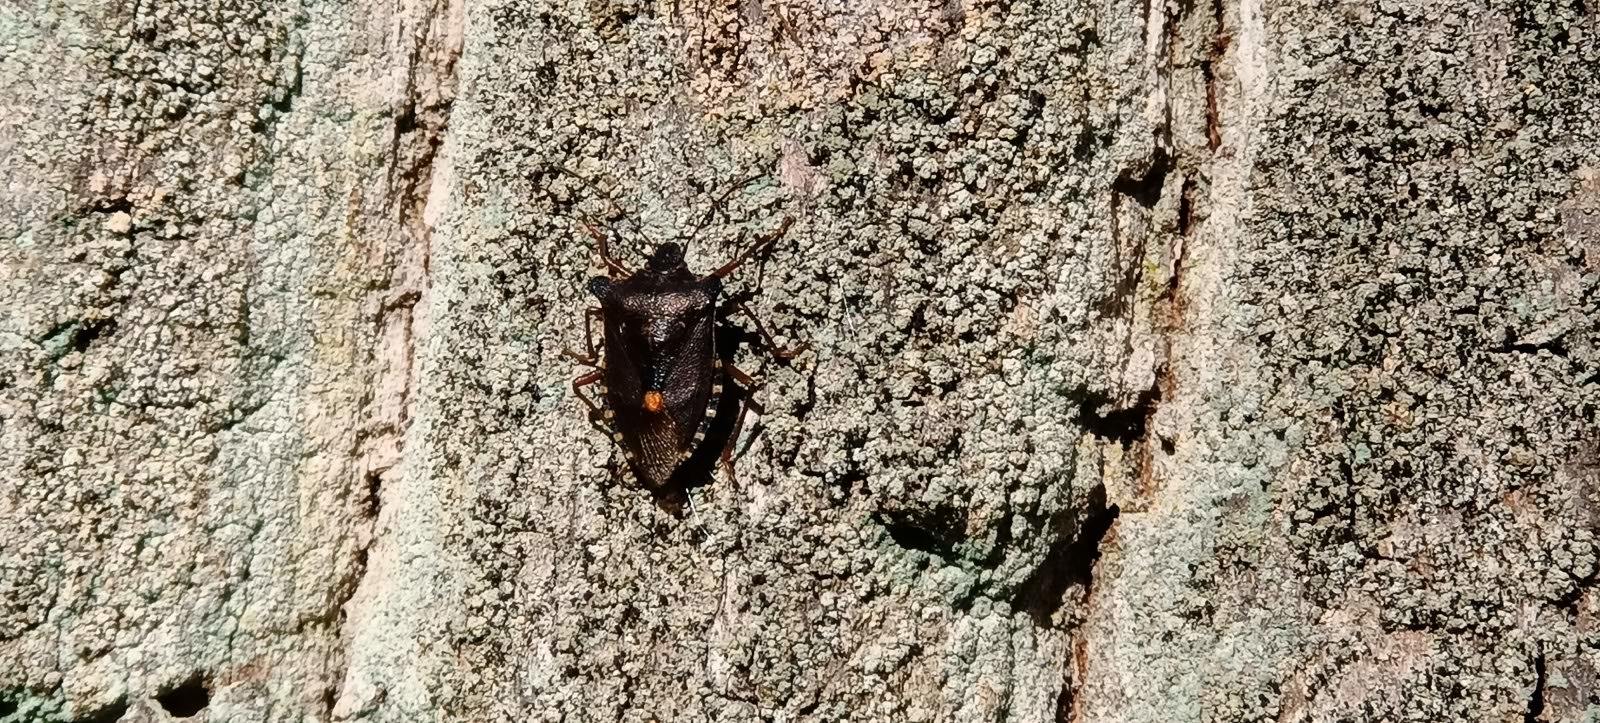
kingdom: Animalia
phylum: Arthropoda
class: Insecta
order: Hemiptera
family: Pentatomidae
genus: Pentatoma
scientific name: Pentatoma rufipes
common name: Forest bug
